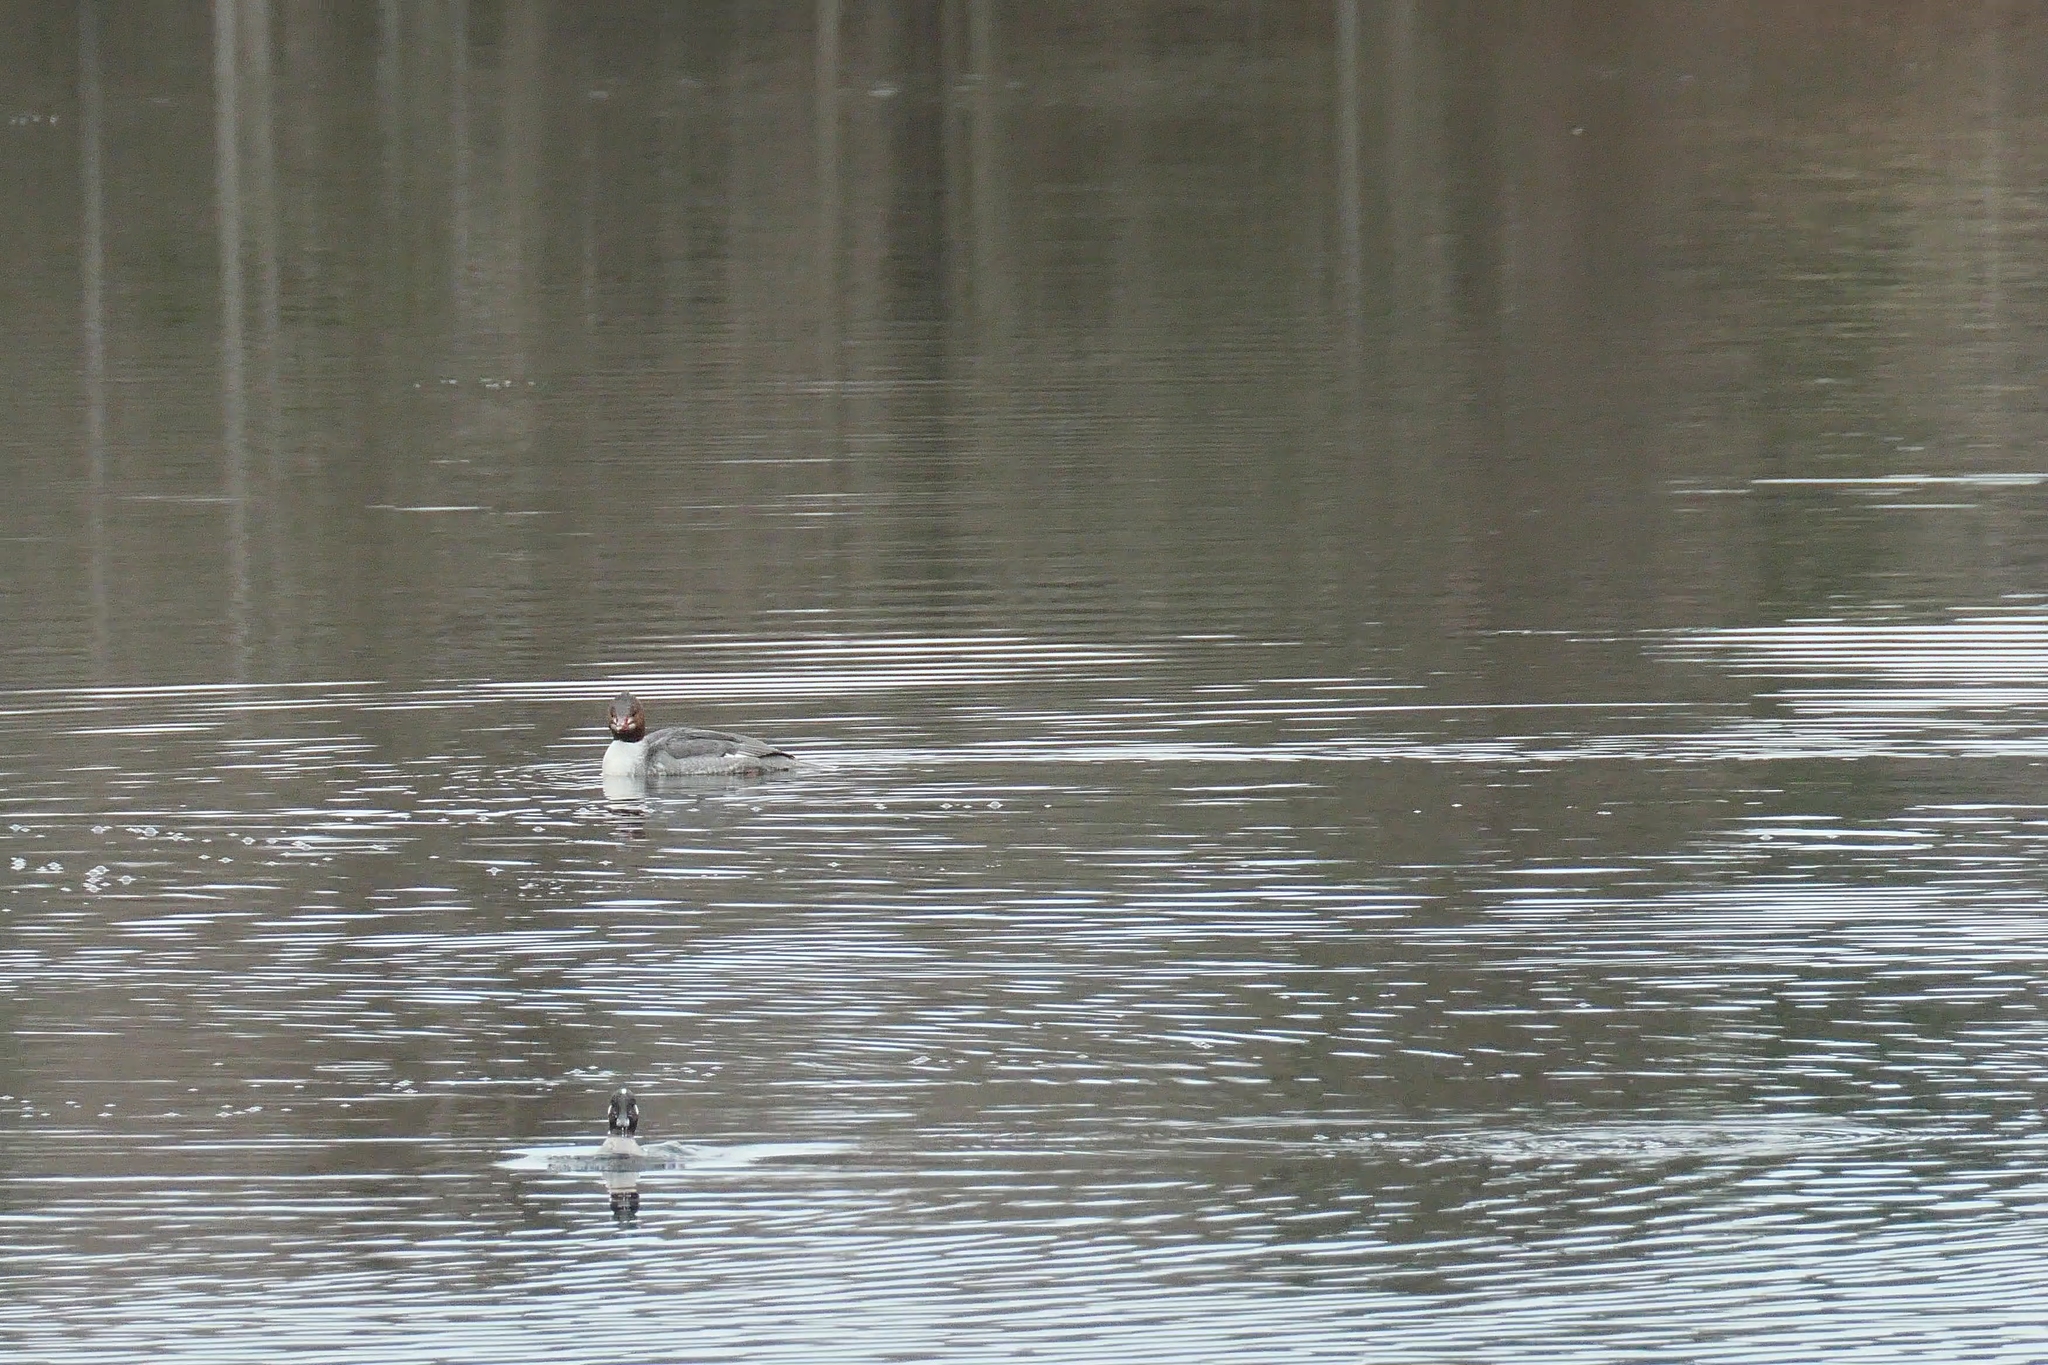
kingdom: Animalia
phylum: Chordata
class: Aves
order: Anseriformes
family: Anatidae
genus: Bucephala
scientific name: Bucephala albeola
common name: Bufflehead
